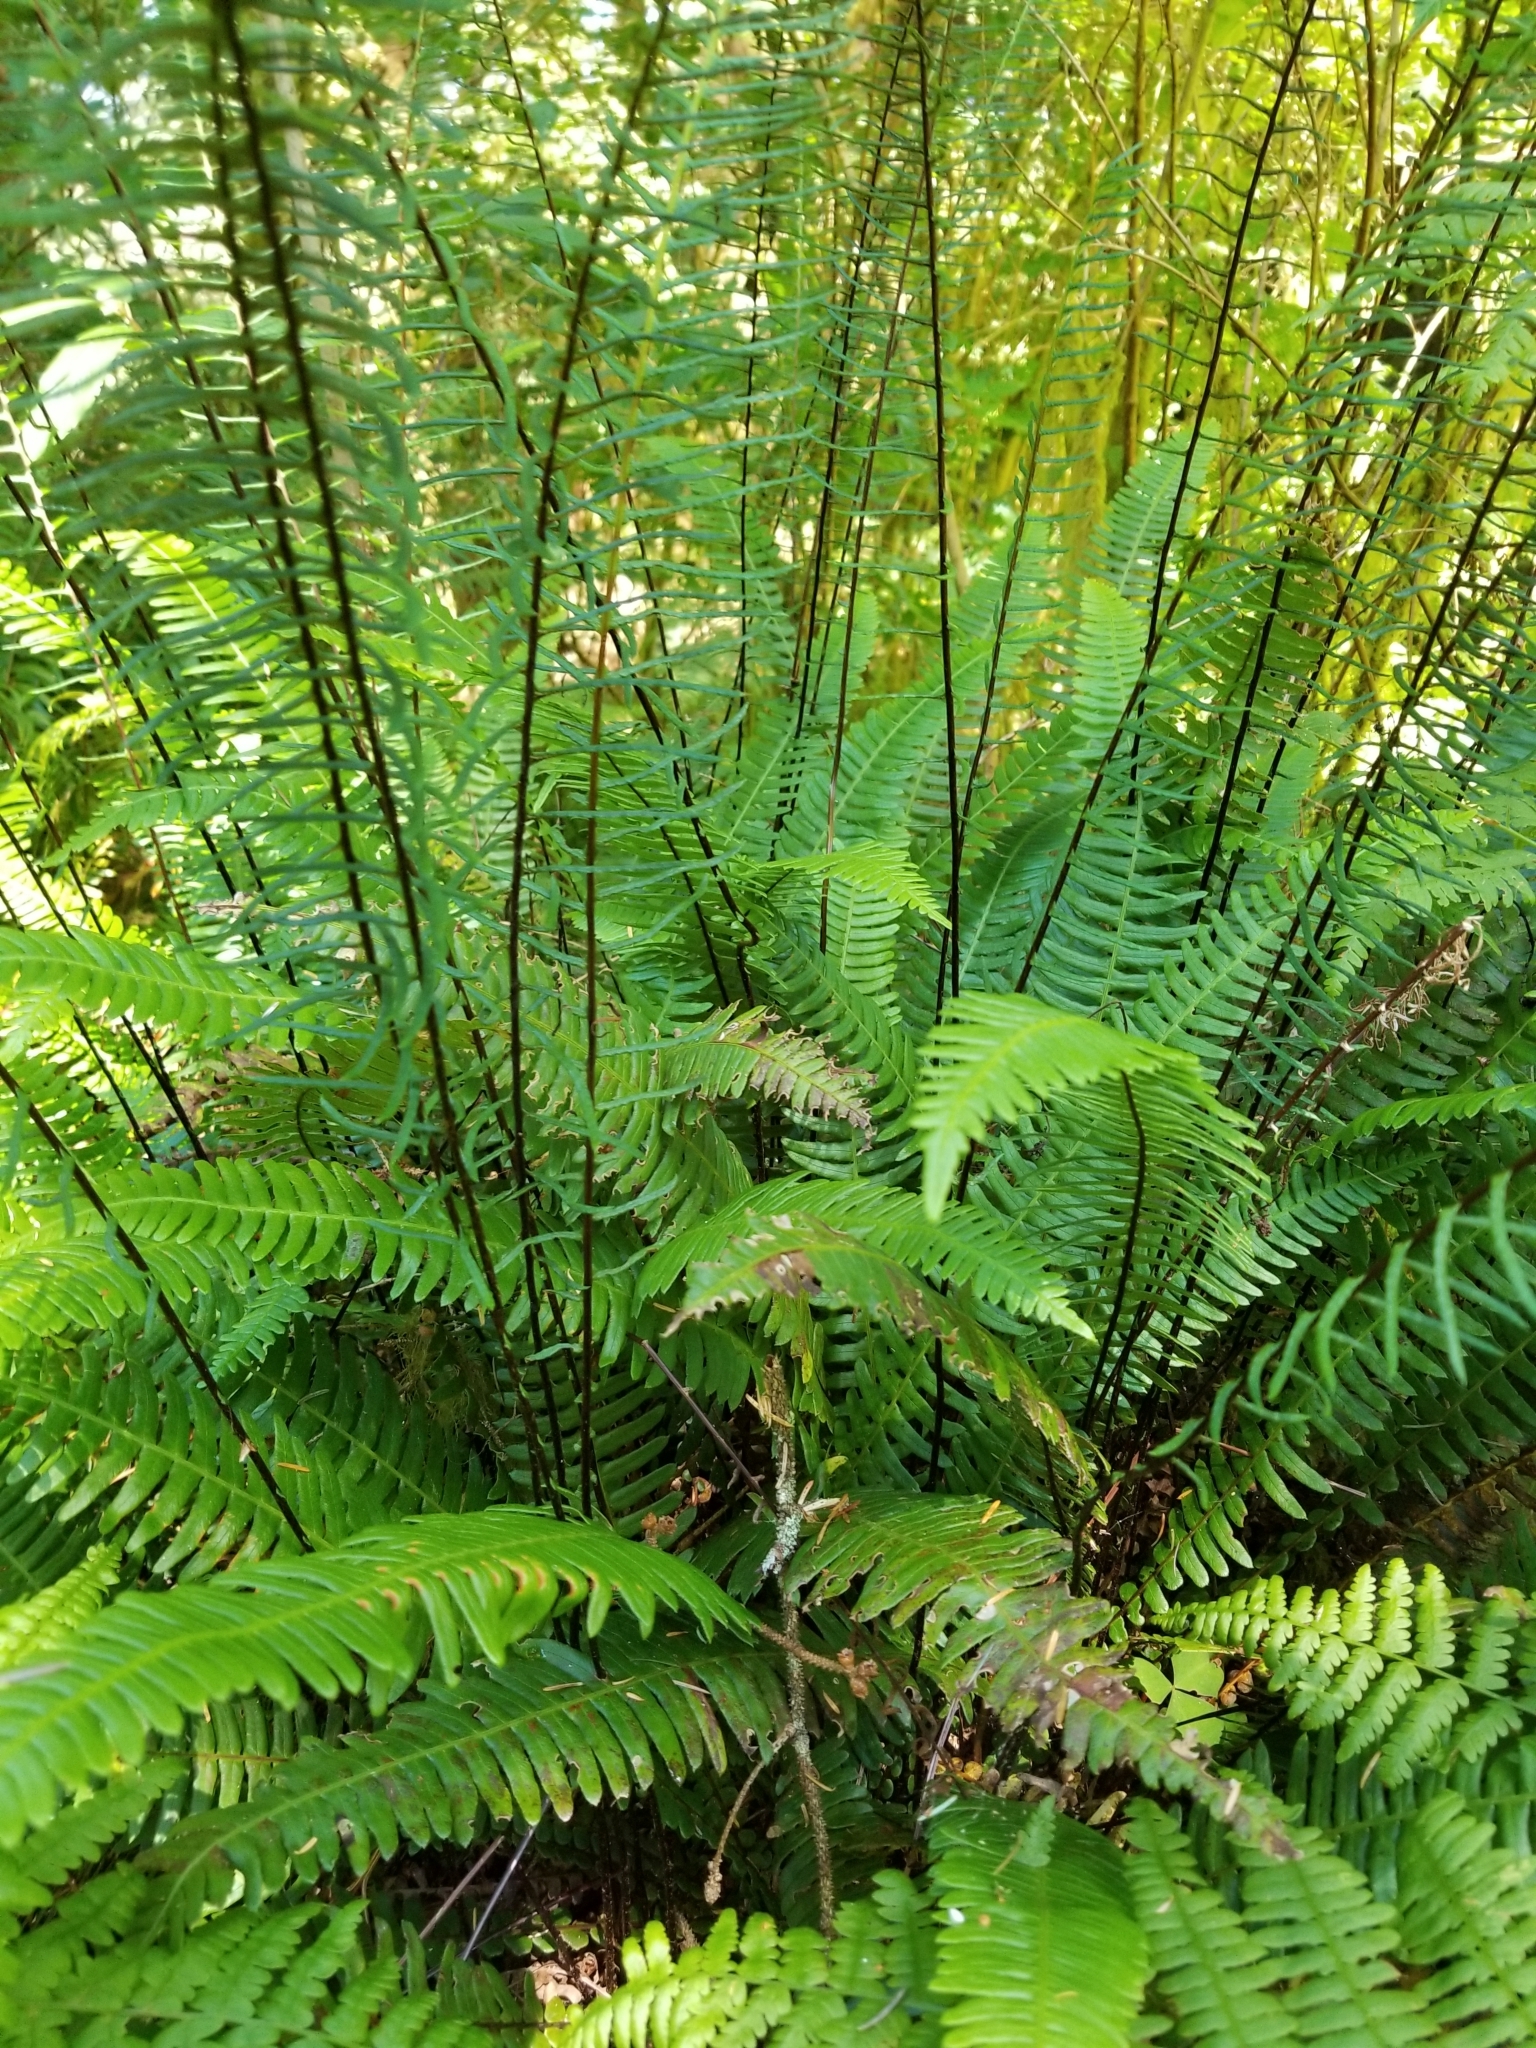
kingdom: Plantae
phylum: Tracheophyta
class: Polypodiopsida
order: Polypodiales
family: Blechnaceae
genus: Struthiopteris
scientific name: Struthiopteris spicant
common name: Deer fern
